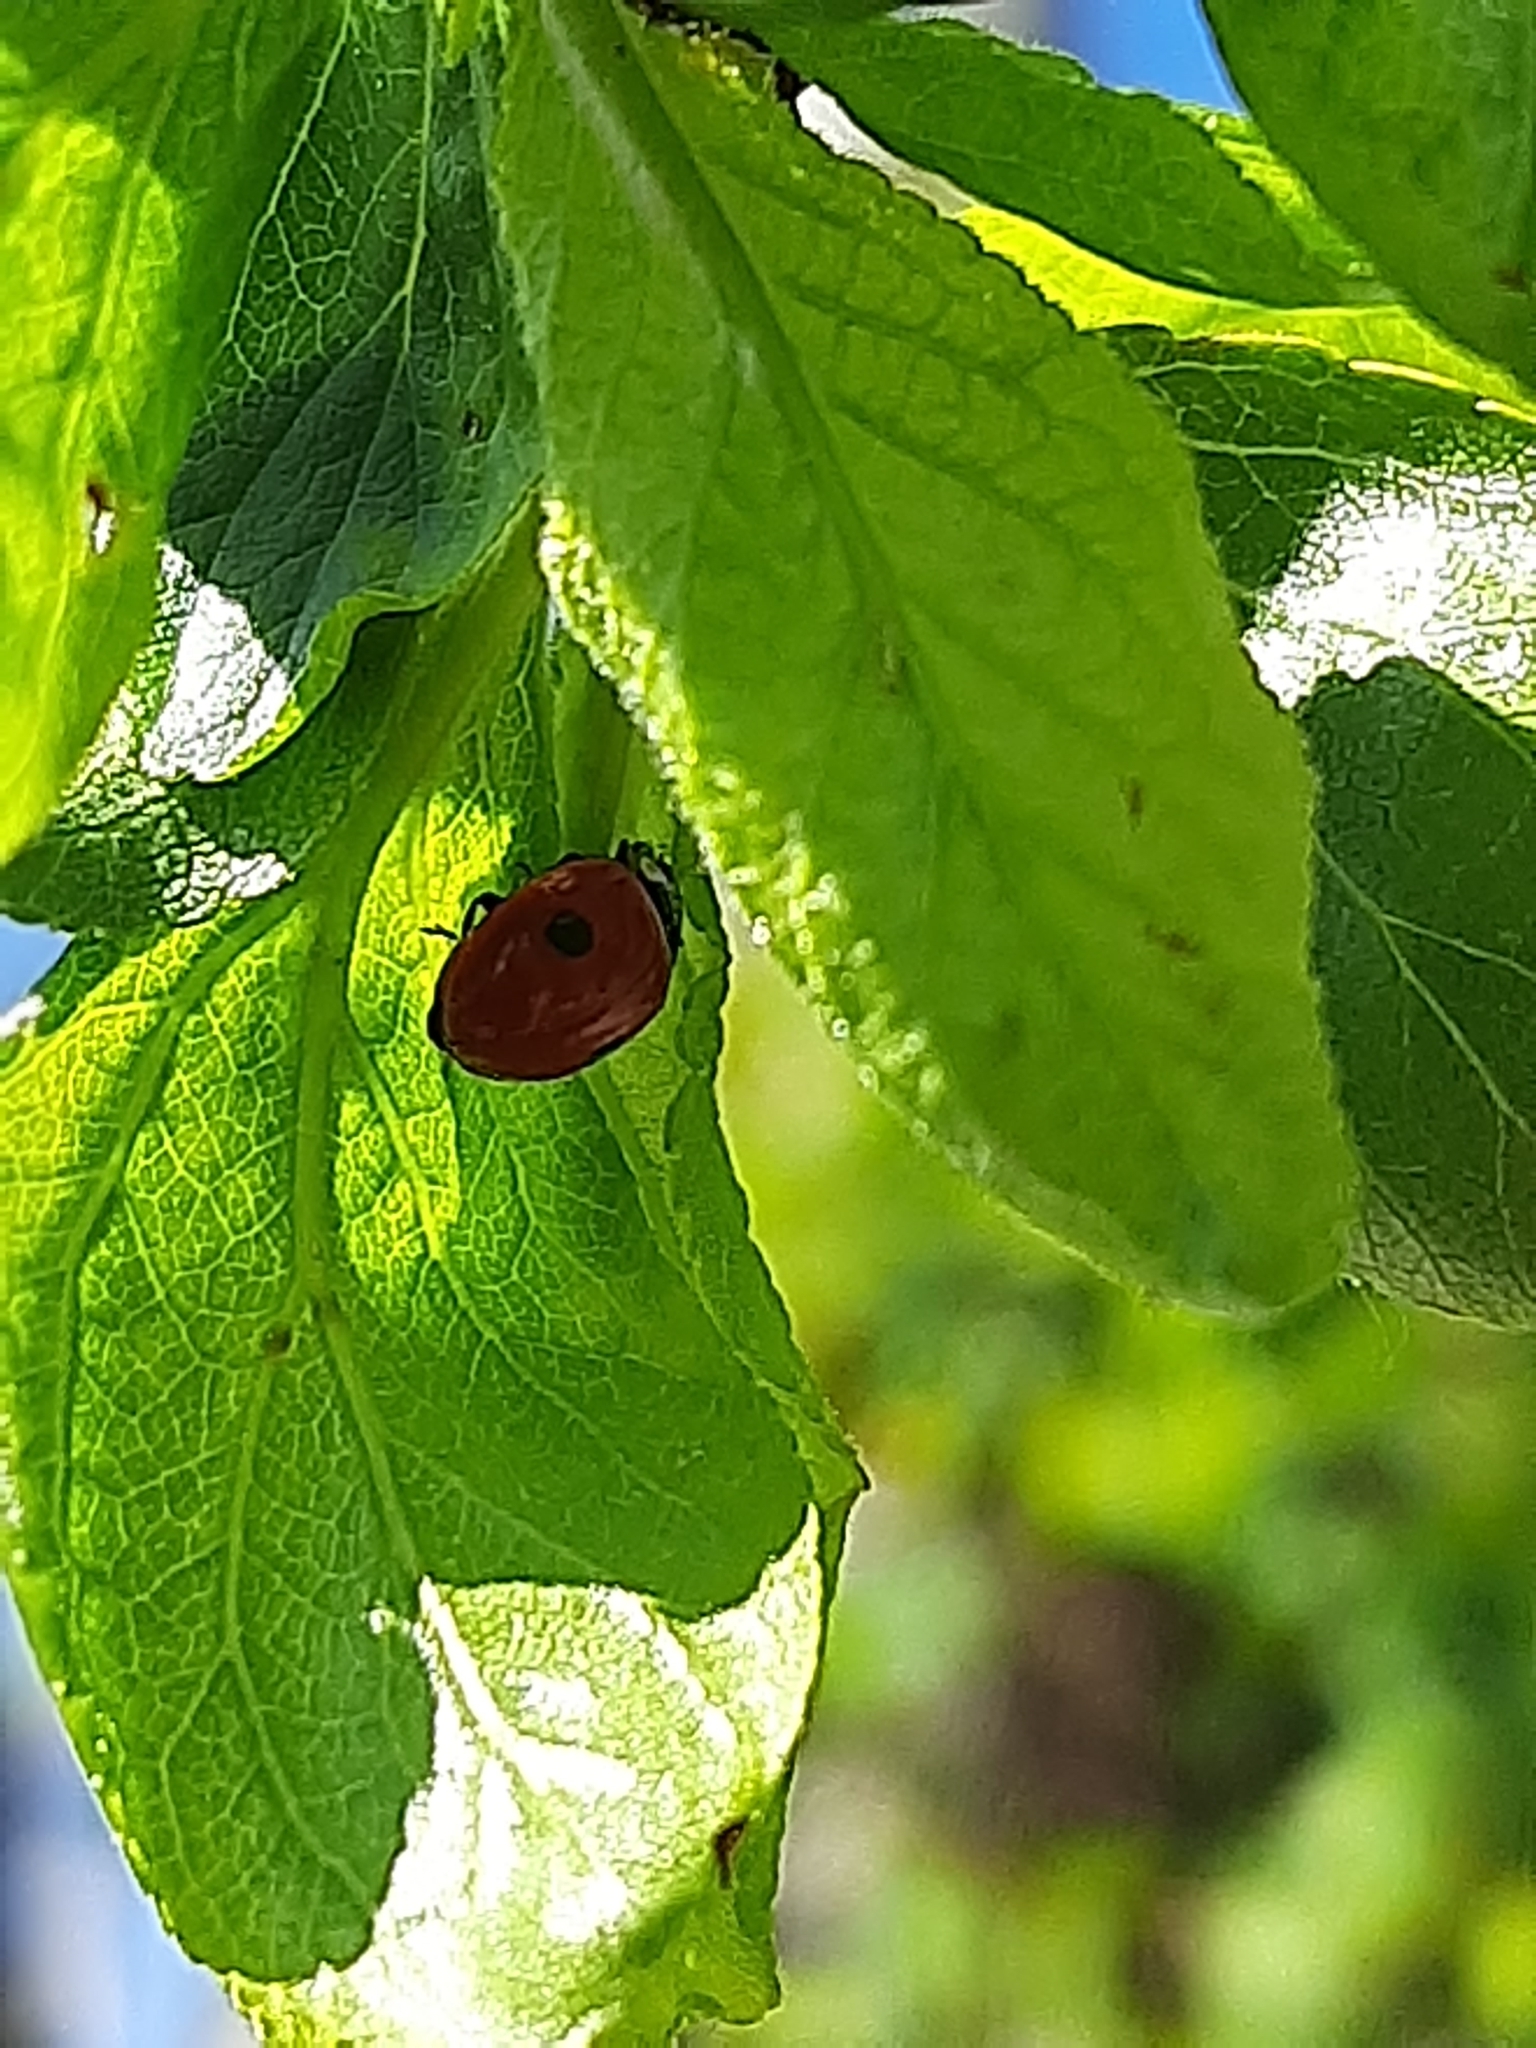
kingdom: Animalia
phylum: Arthropoda
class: Insecta
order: Coleoptera
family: Coccinellidae
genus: Adalia
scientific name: Adalia bipunctata
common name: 2-spot ladybird
